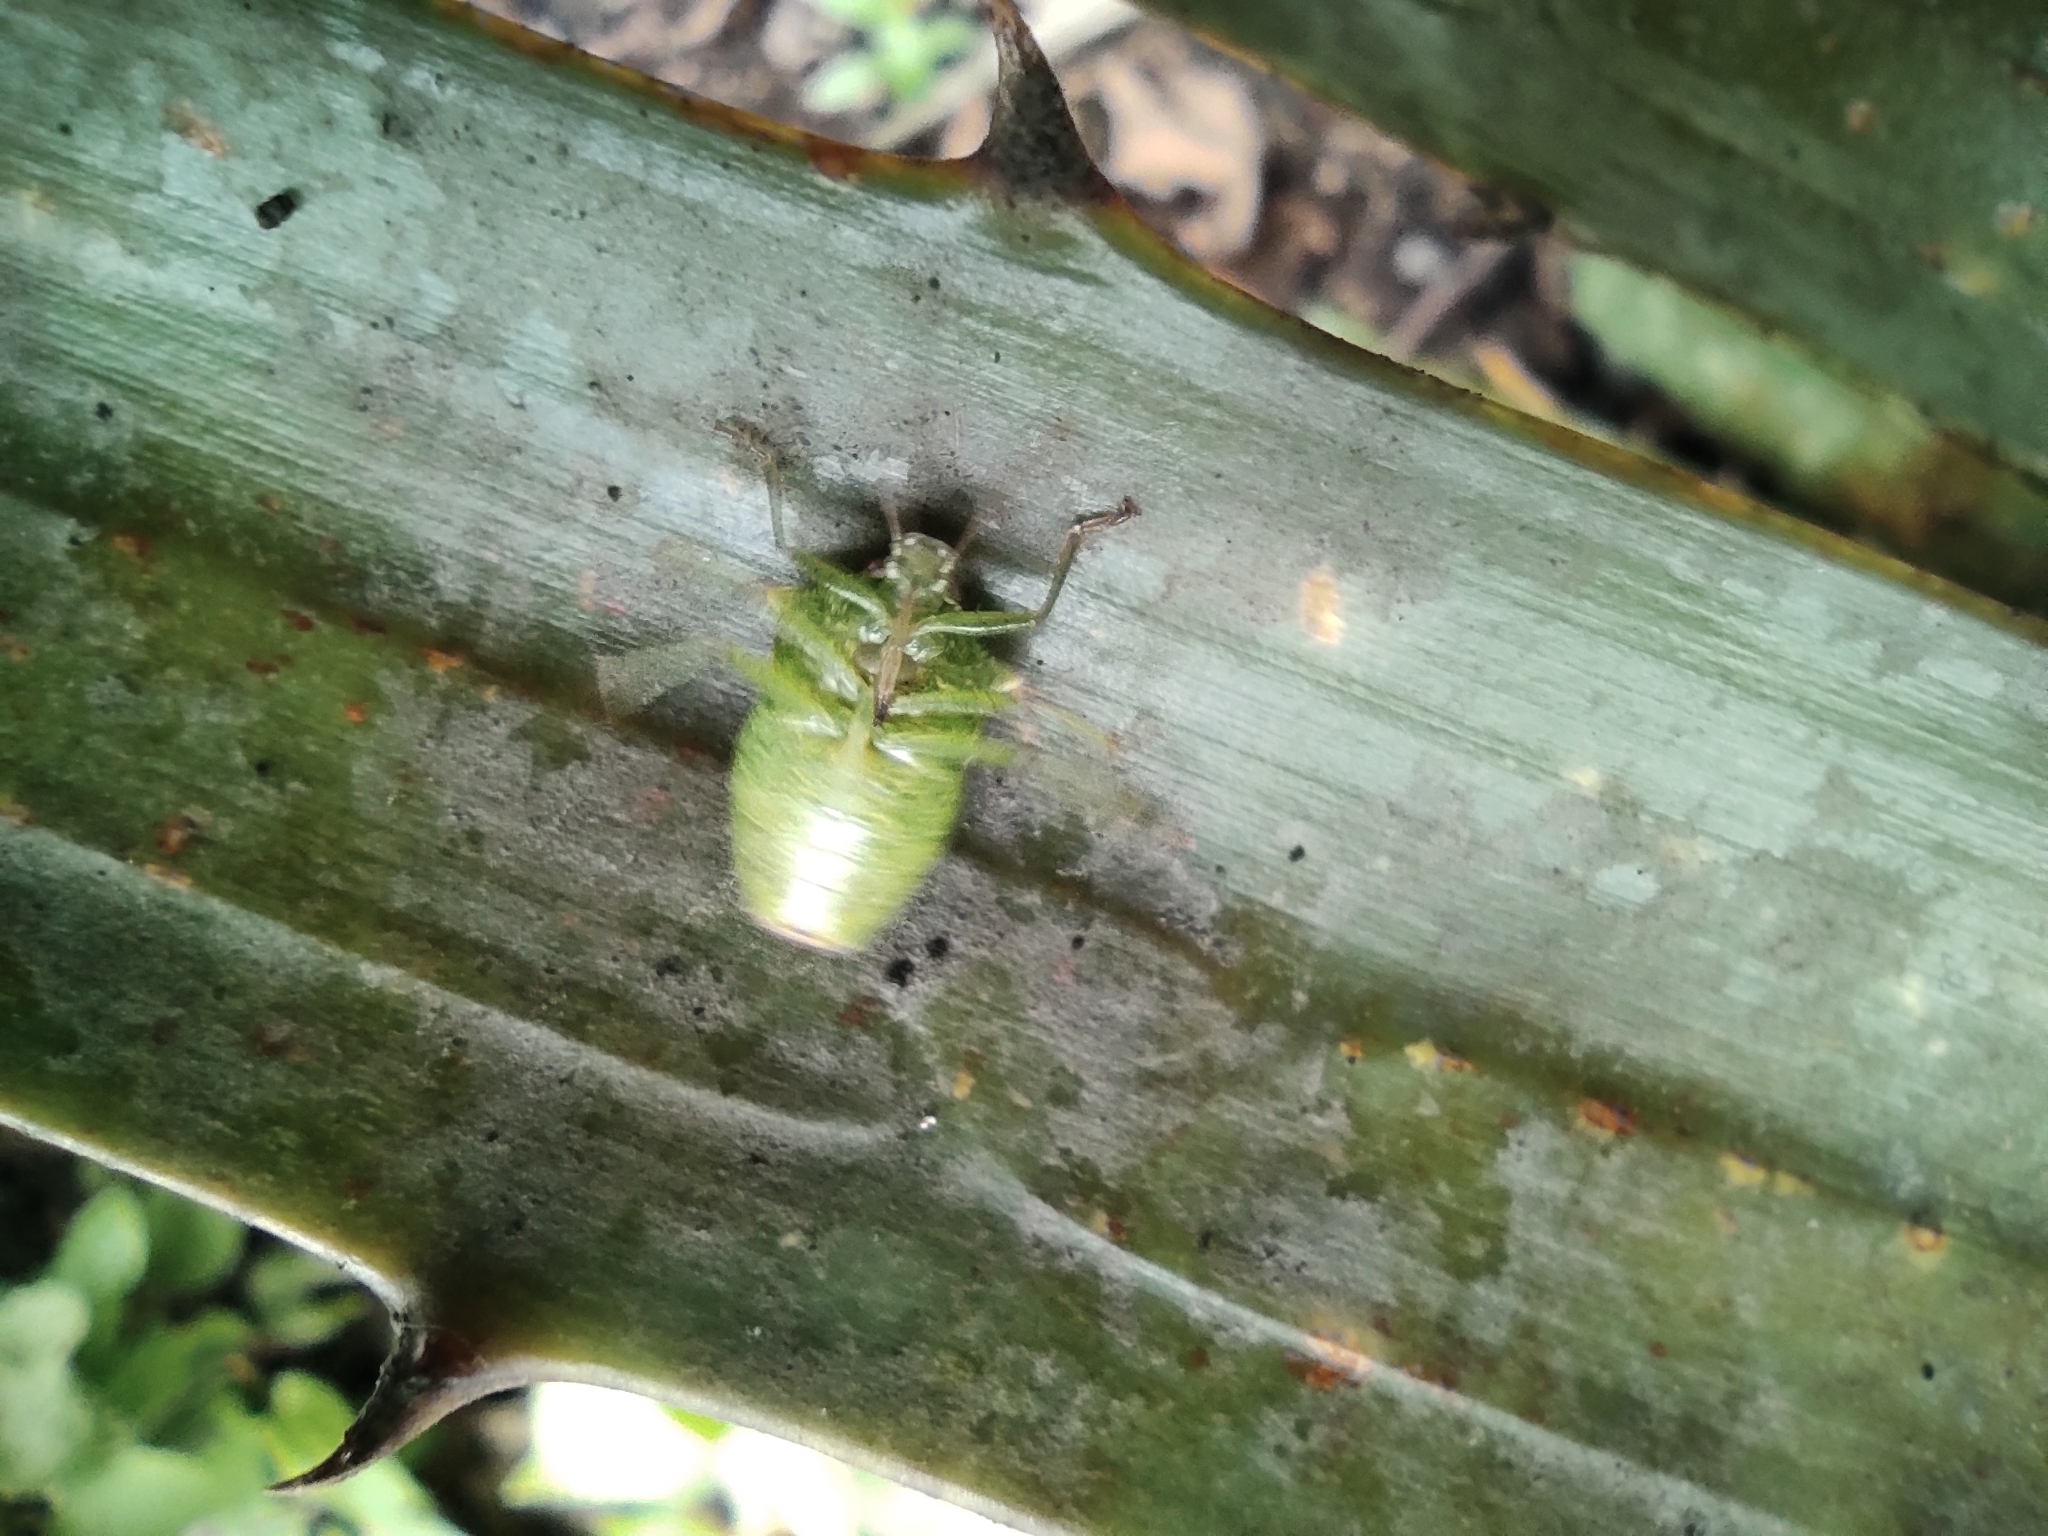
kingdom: Animalia
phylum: Arthropoda
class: Insecta
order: Hemiptera
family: Pentatomidae
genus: Podisus
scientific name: Podisus
